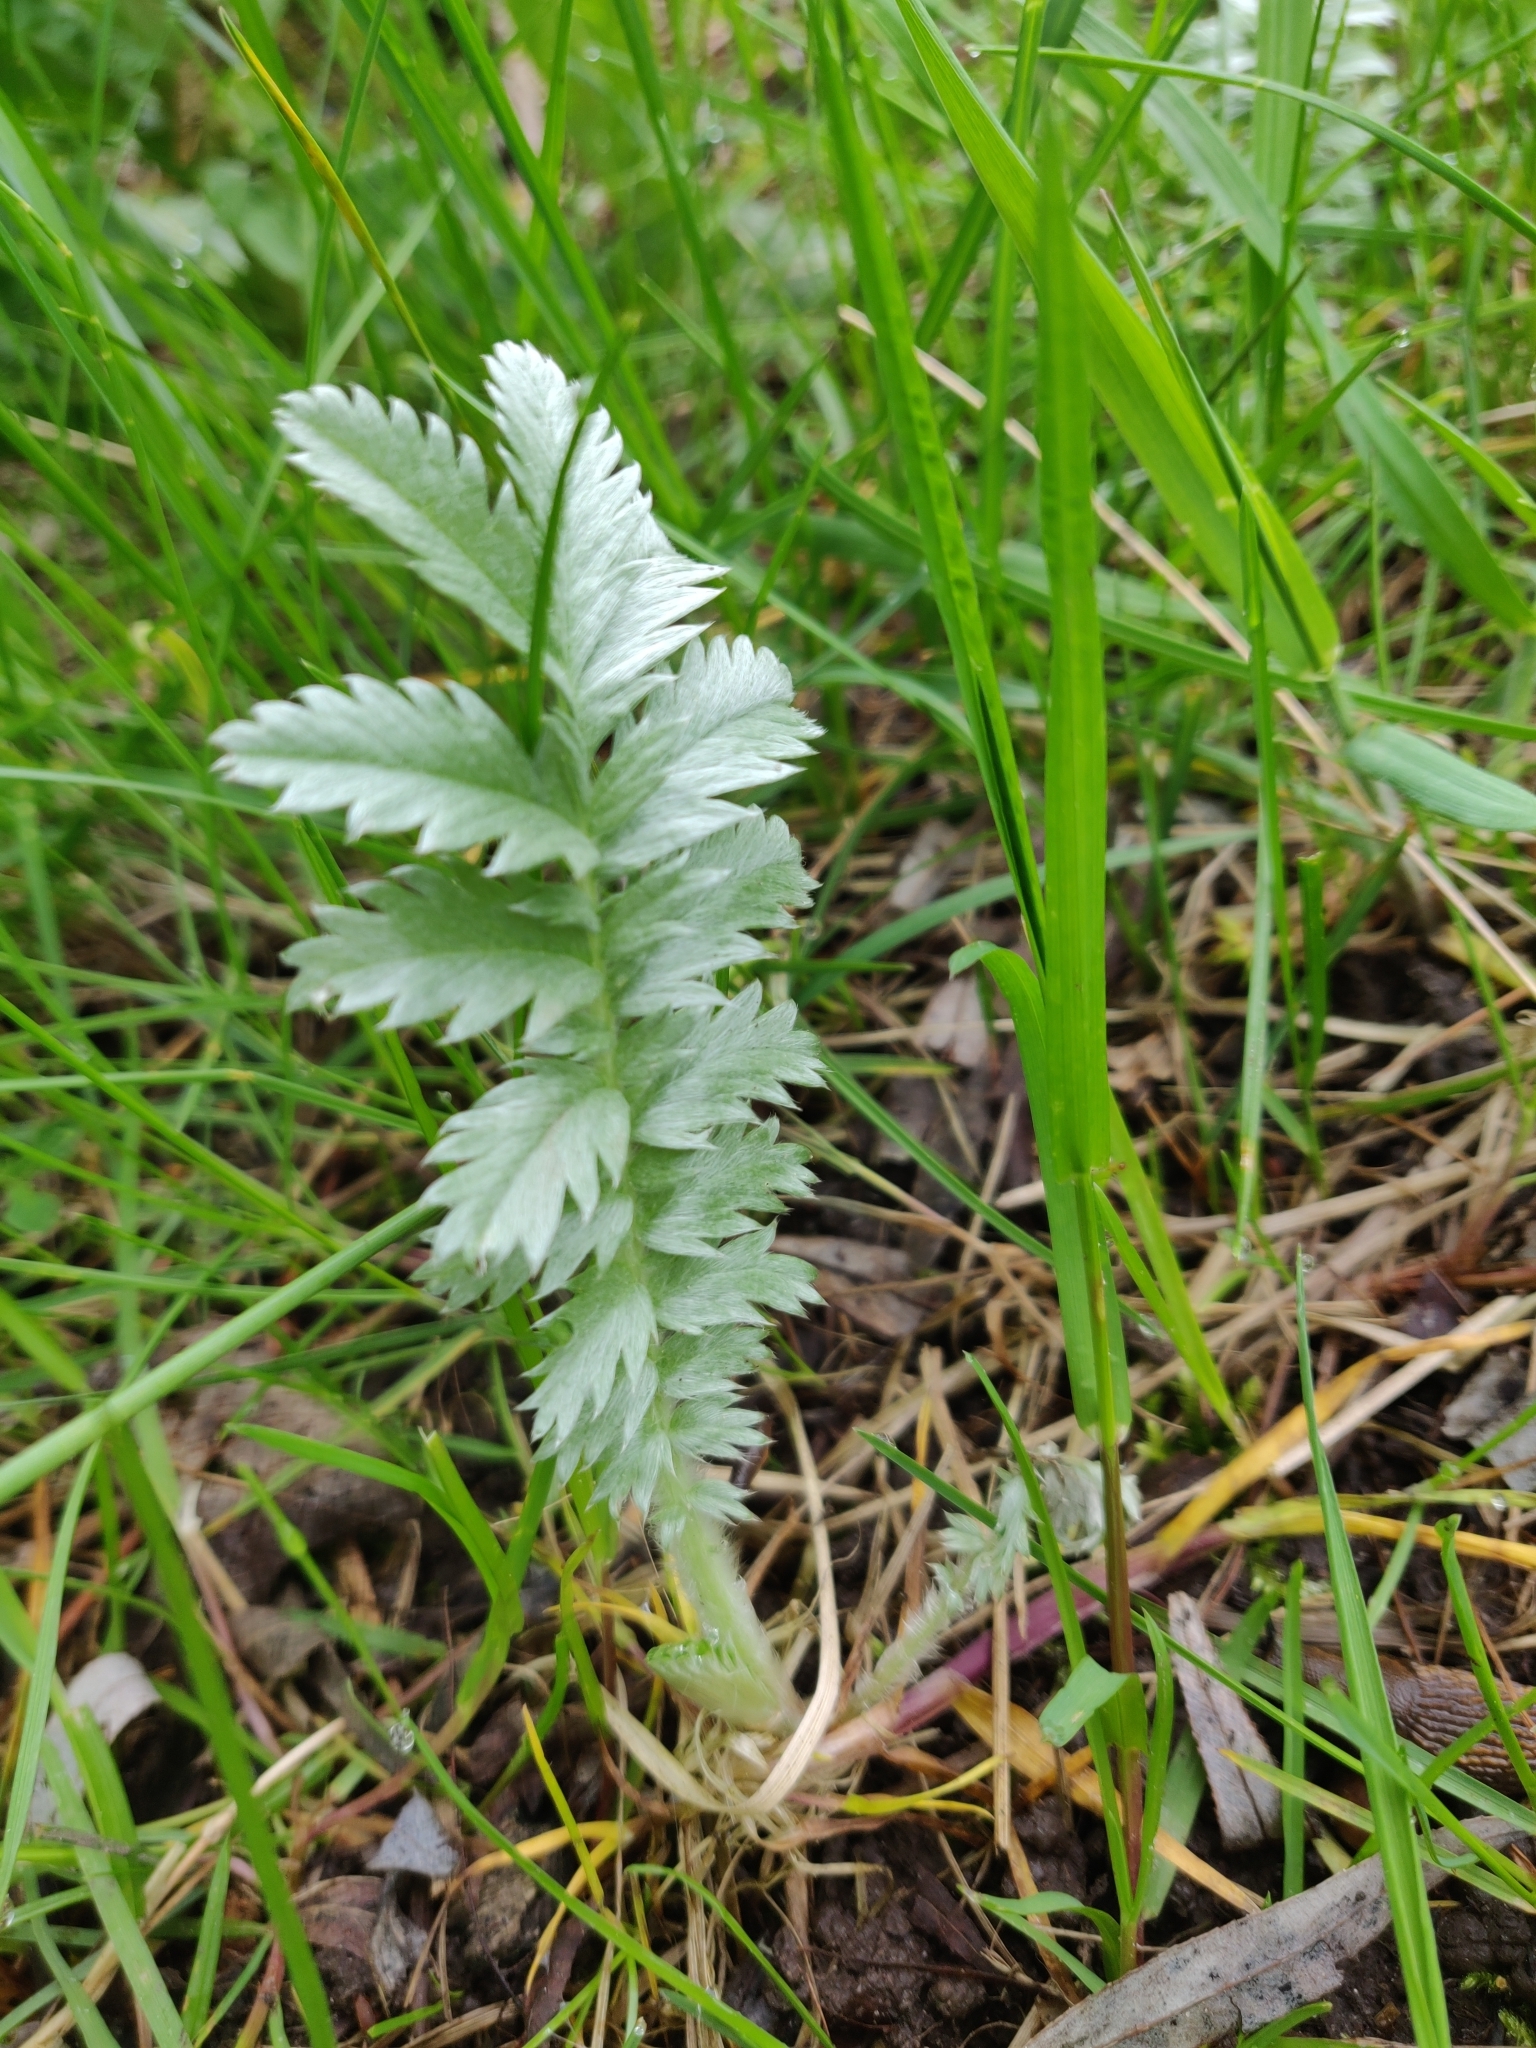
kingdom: Plantae
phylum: Tracheophyta
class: Magnoliopsida
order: Rosales
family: Rosaceae
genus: Argentina
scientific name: Argentina anserina
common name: Common silverweed
